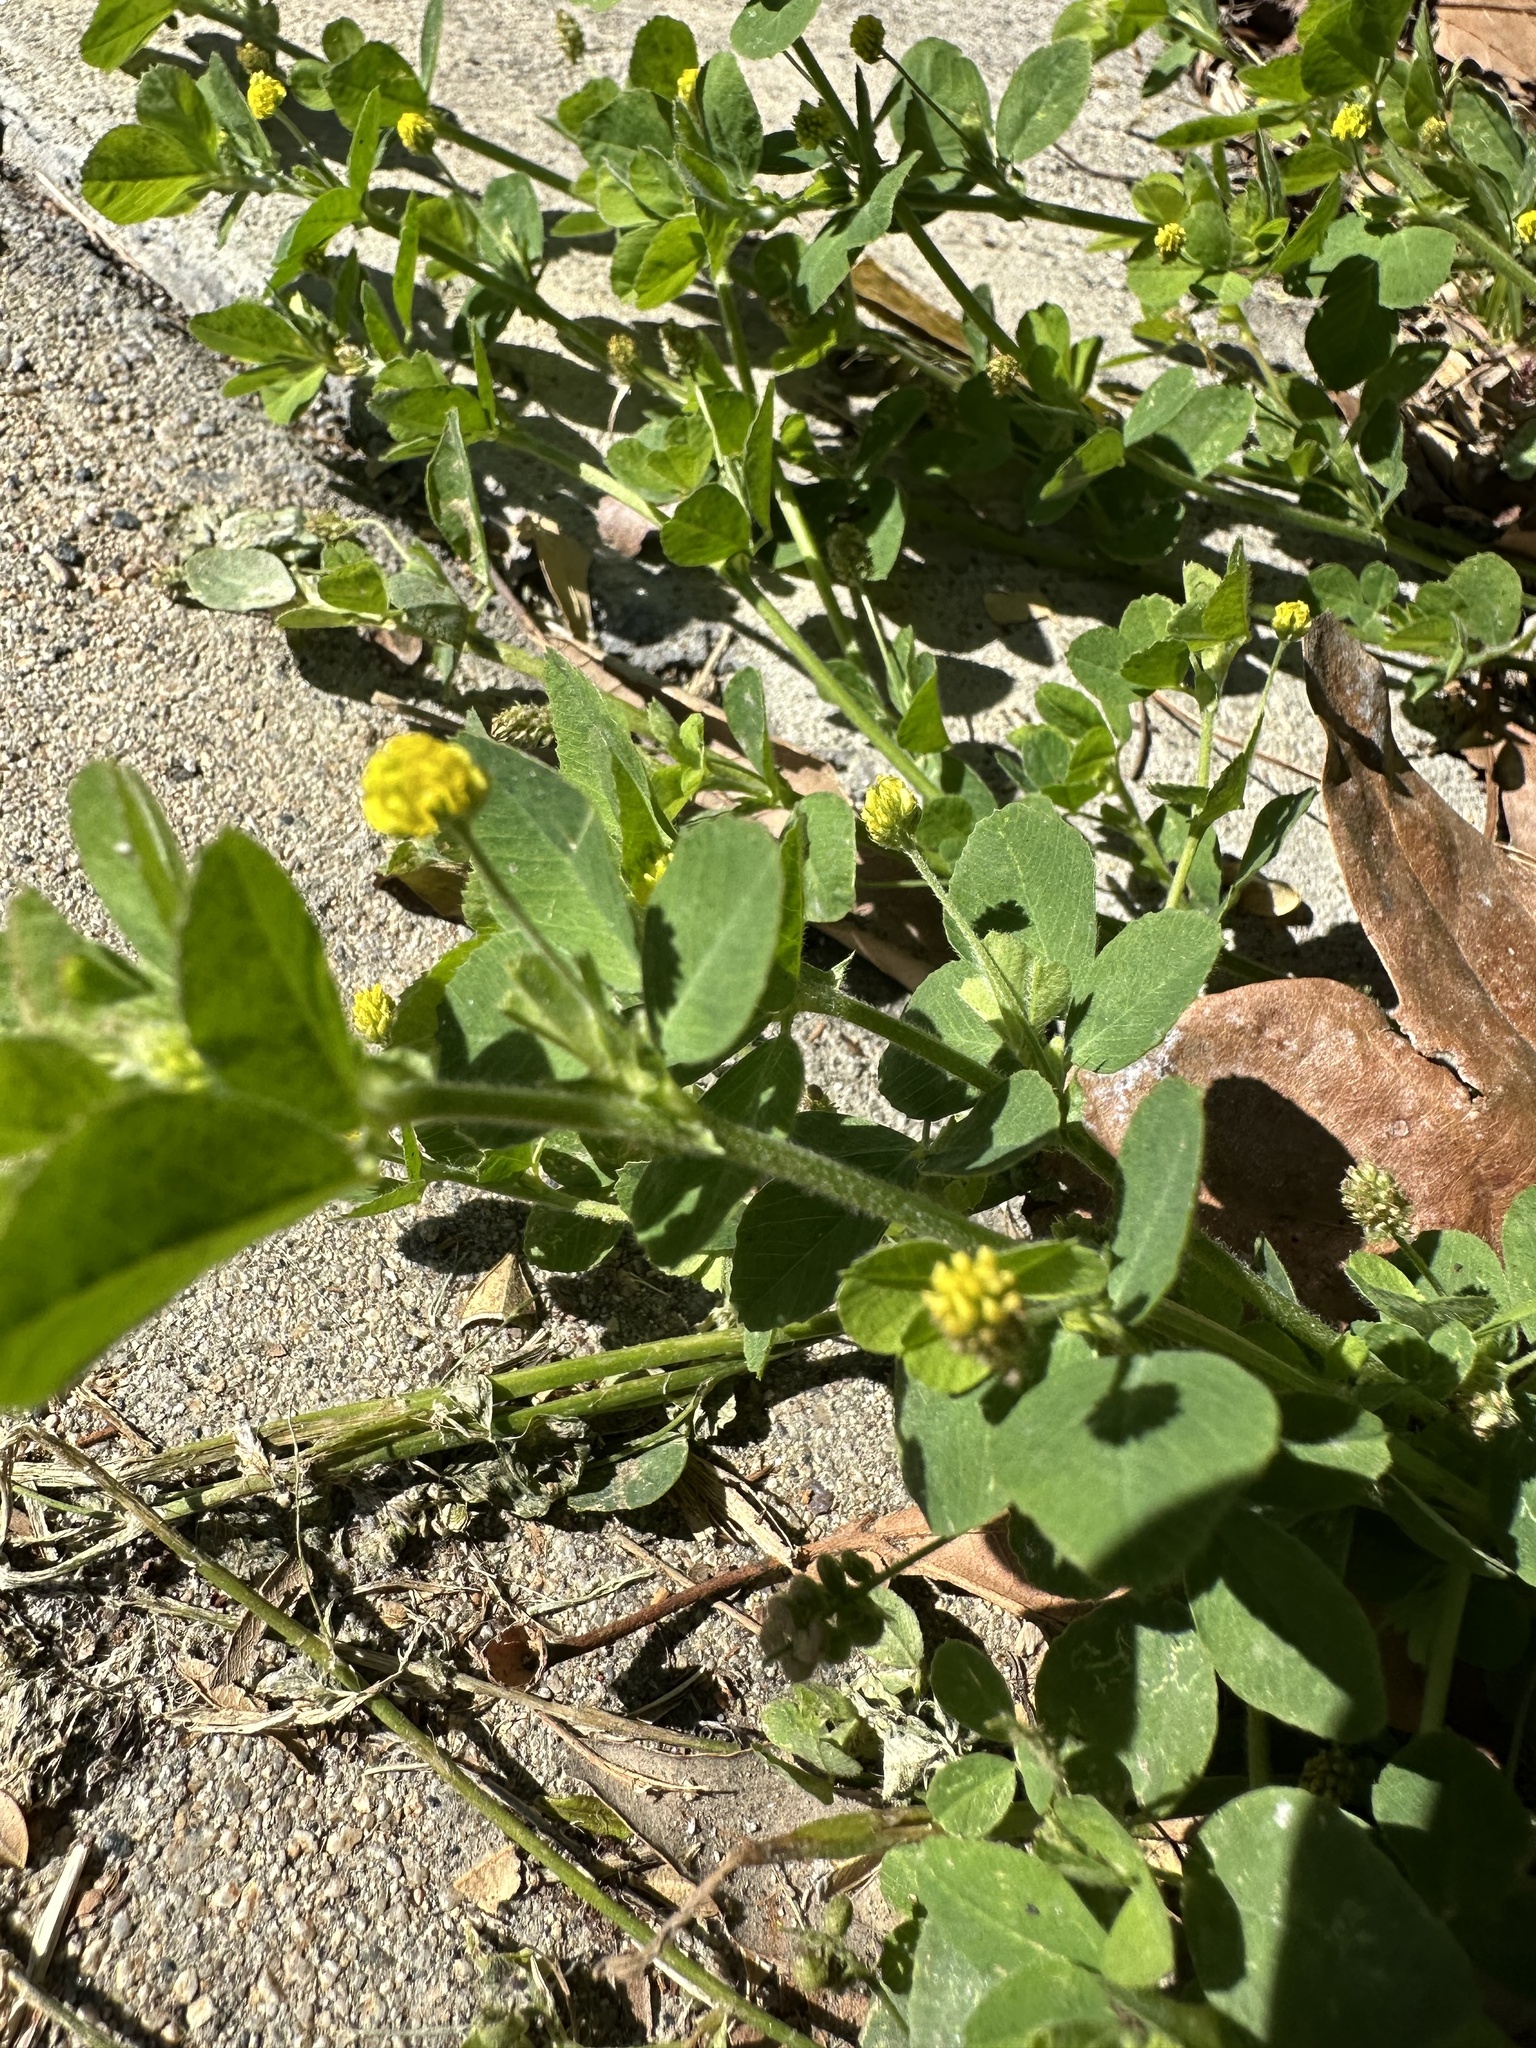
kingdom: Plantae
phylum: Tracheophyta
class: Magnoliopsida
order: Fabales
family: Fabaceae
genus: Medicago
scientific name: Medicago lupulina
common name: Black medick
